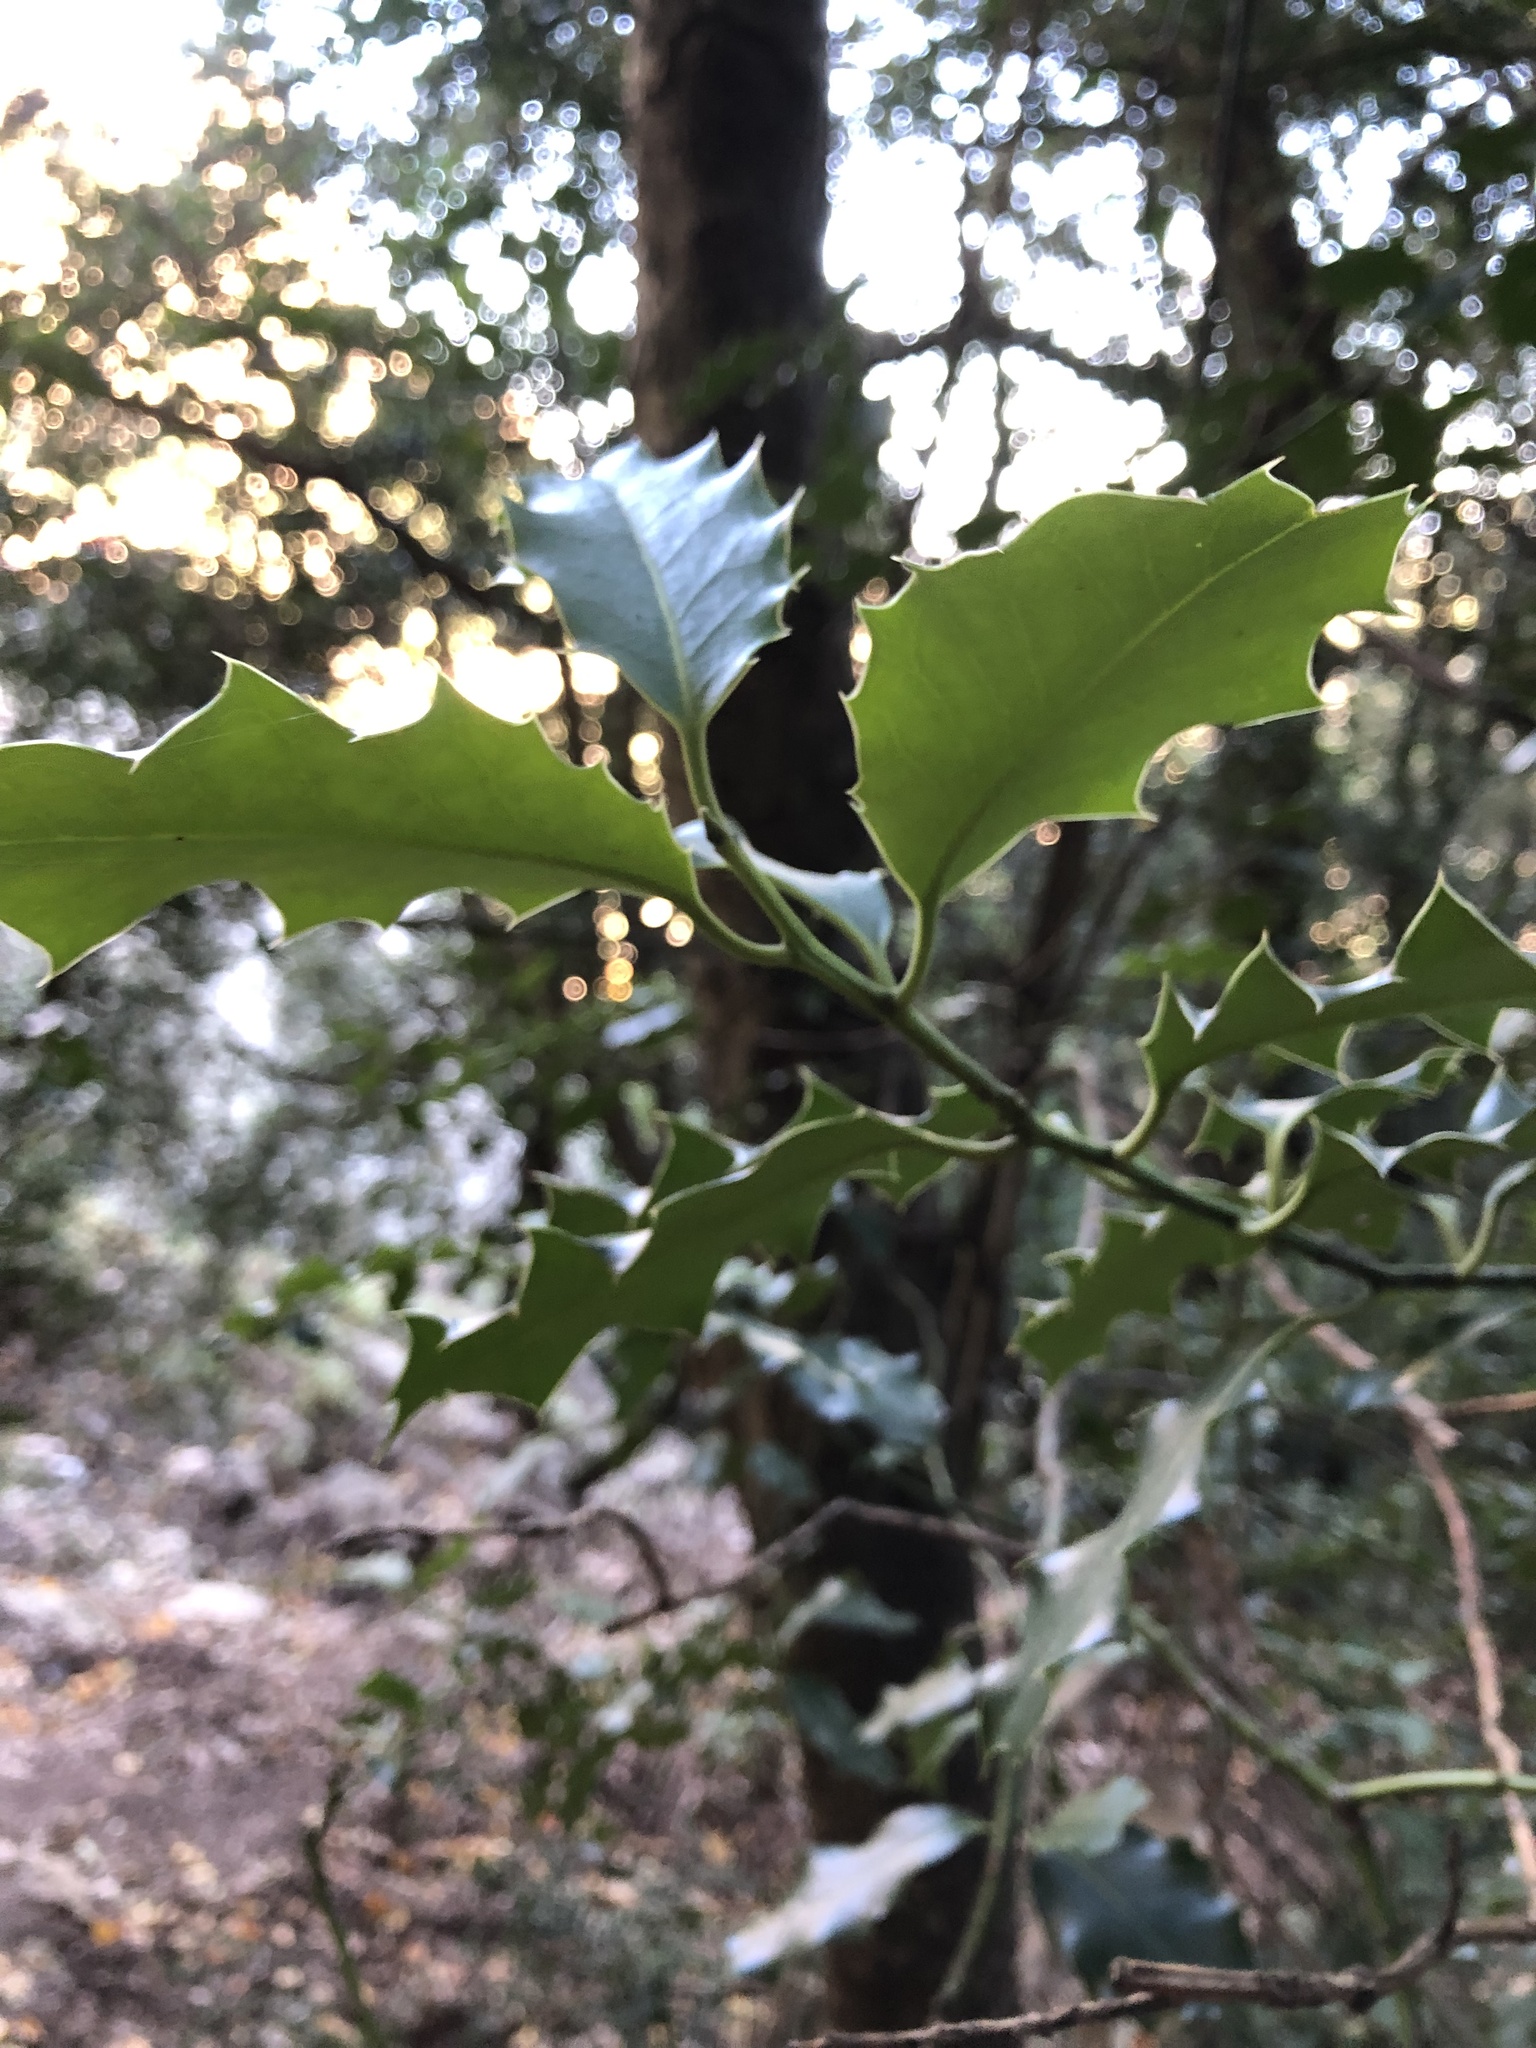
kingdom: Plantae
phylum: Tracheophyta
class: Magnoliopsida
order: Aquifoliales
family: Aquifoliaceae
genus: Ilex
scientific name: Ilex aquifolium
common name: English holly
